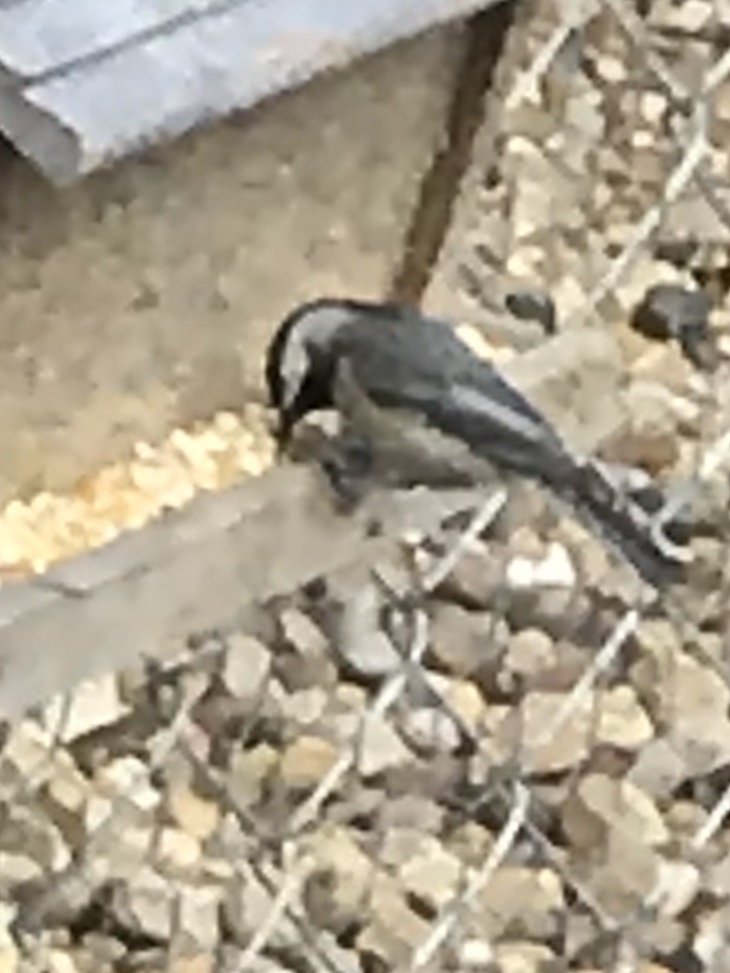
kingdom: Animalia
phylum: Chordata
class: Aves
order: Passeriformes
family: Paridae
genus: Poecile
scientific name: Poecile carolinensis
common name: Carolina chickadee
